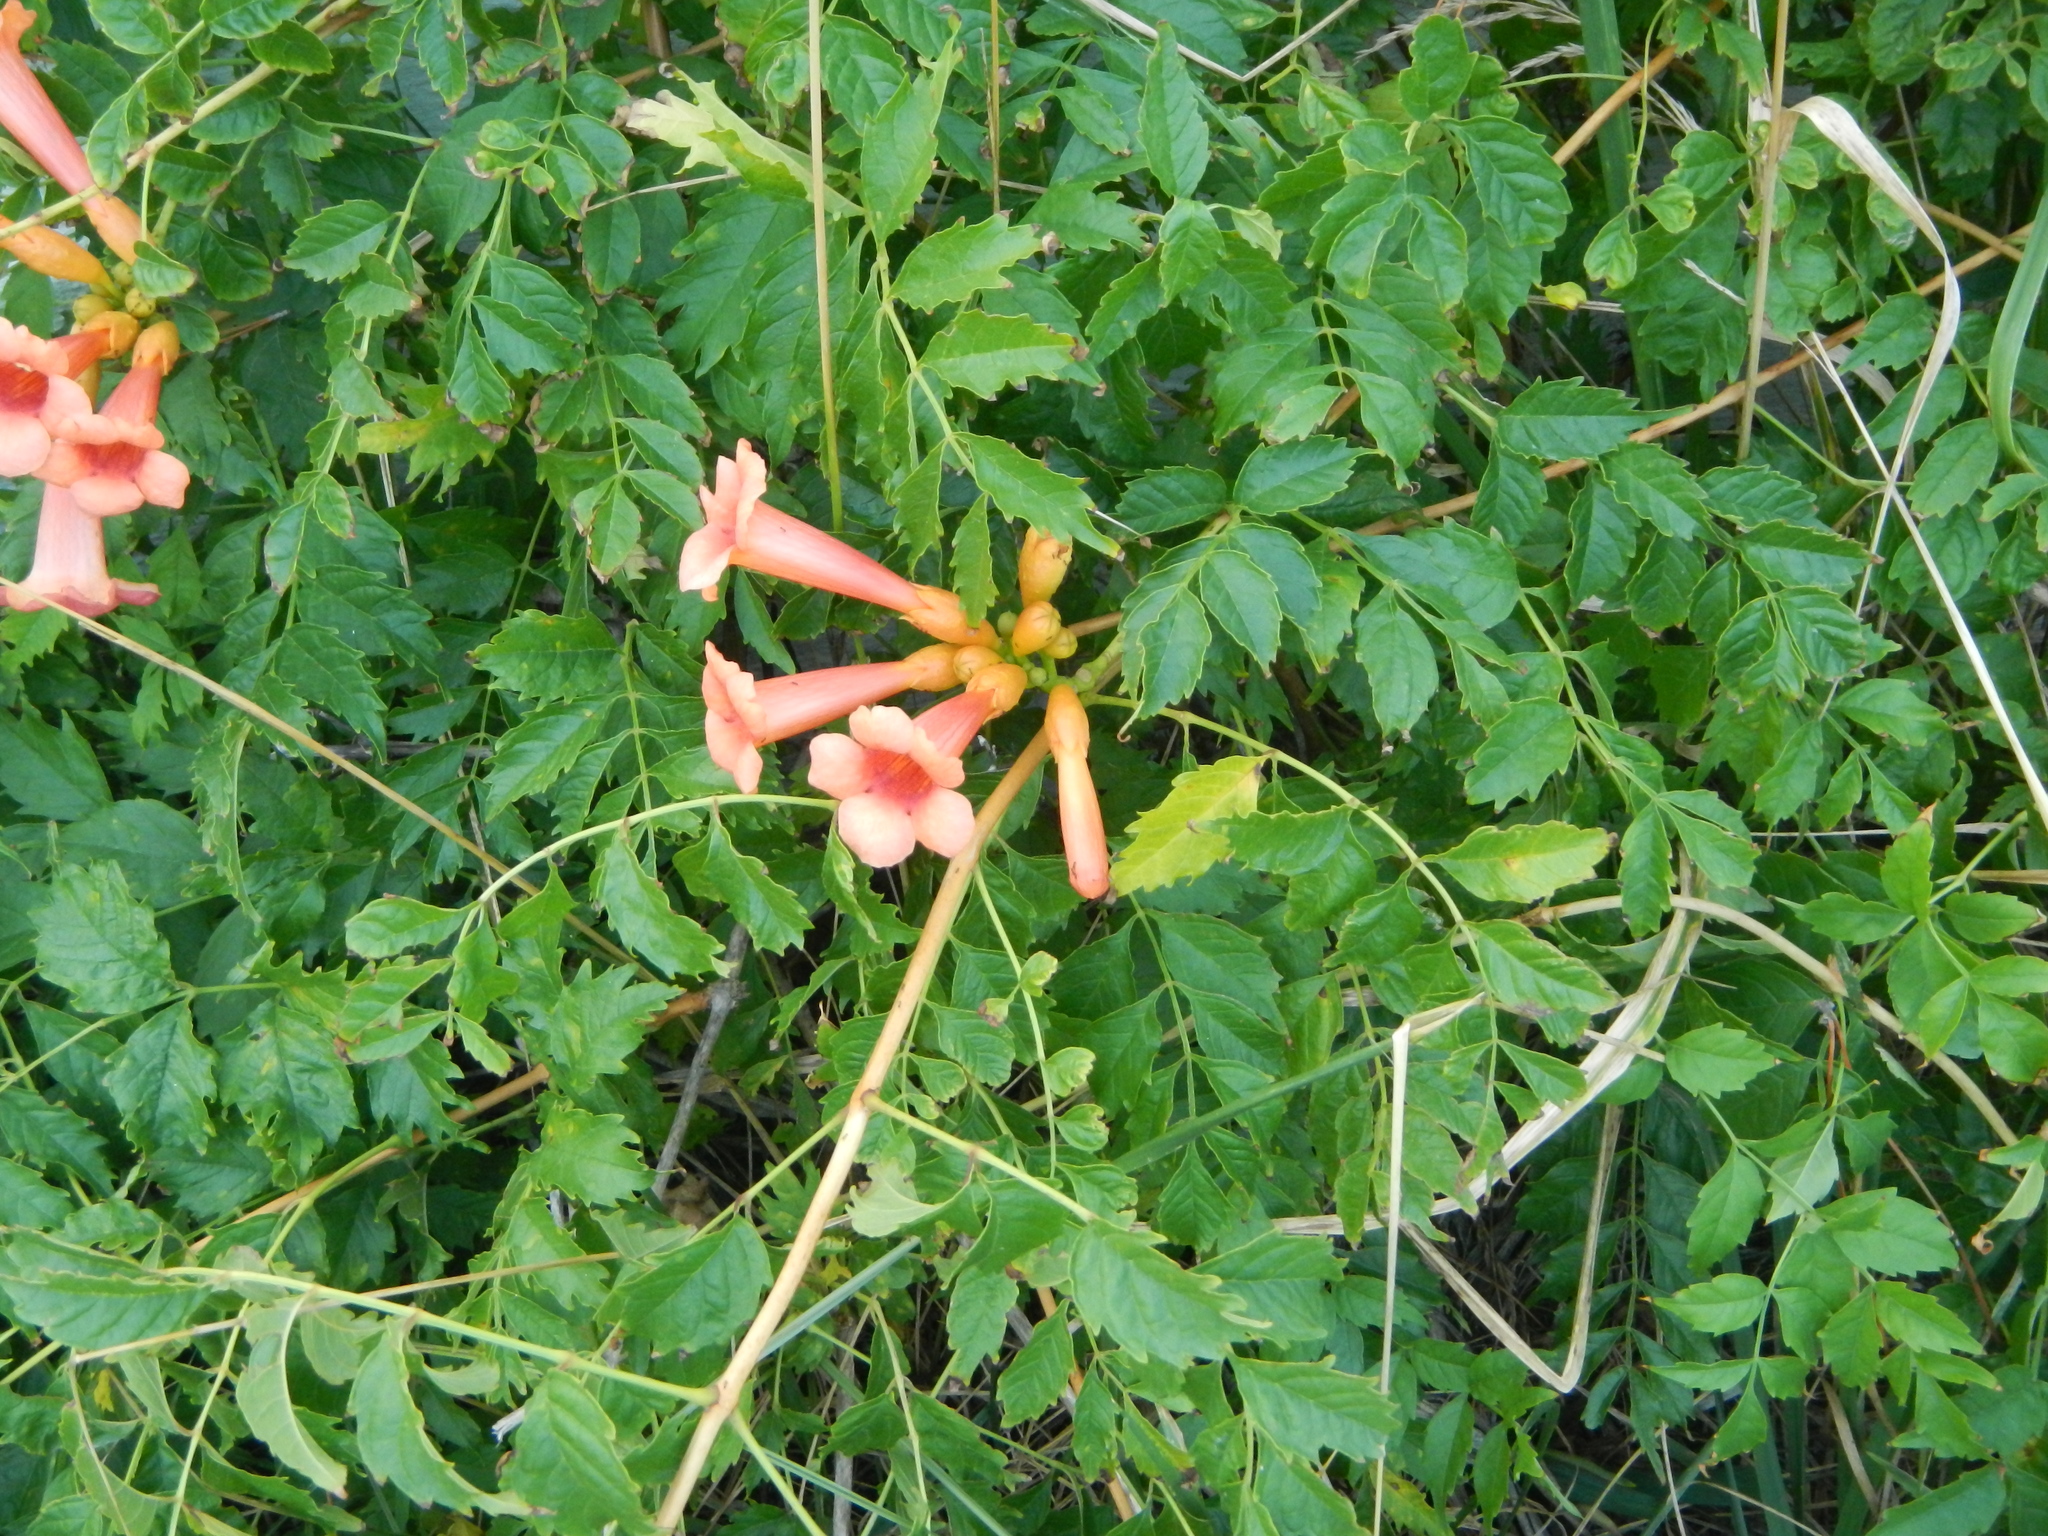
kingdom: Plantae
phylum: Tracheophyta
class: Magnoliopsida
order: Lamiales
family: Bignoniaceae
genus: Campsis
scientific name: Campsis radicans
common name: Trumpet-creeper
